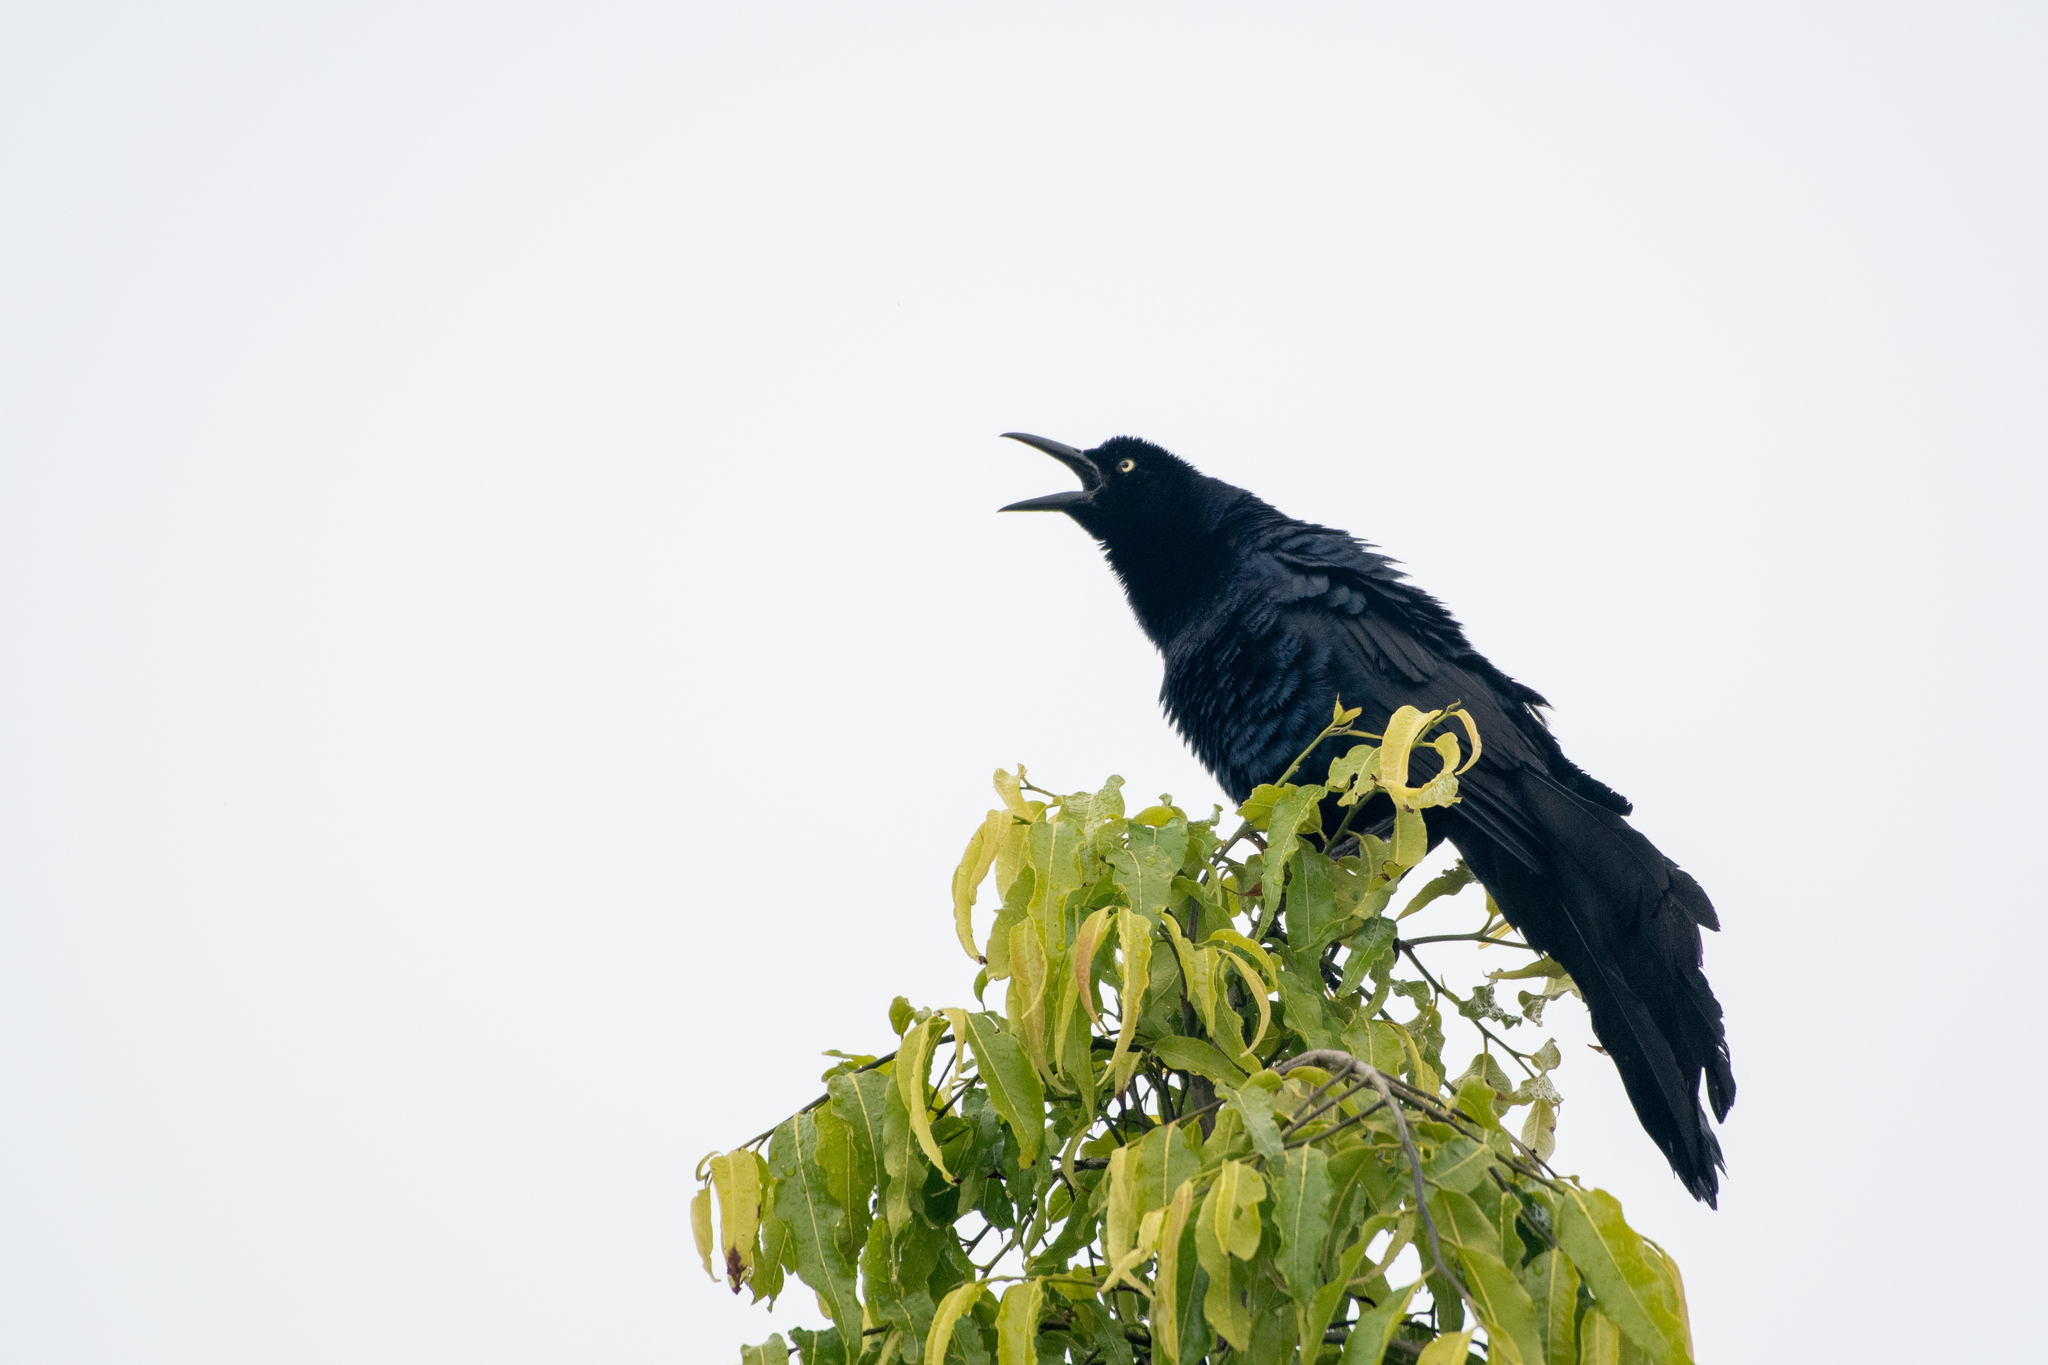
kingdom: Animalia
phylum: Chordata
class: Aves
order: Passeriformes
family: Icteridae
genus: Quiscalus
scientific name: Quiscalus mexicanus
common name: Great-tailed grackle
